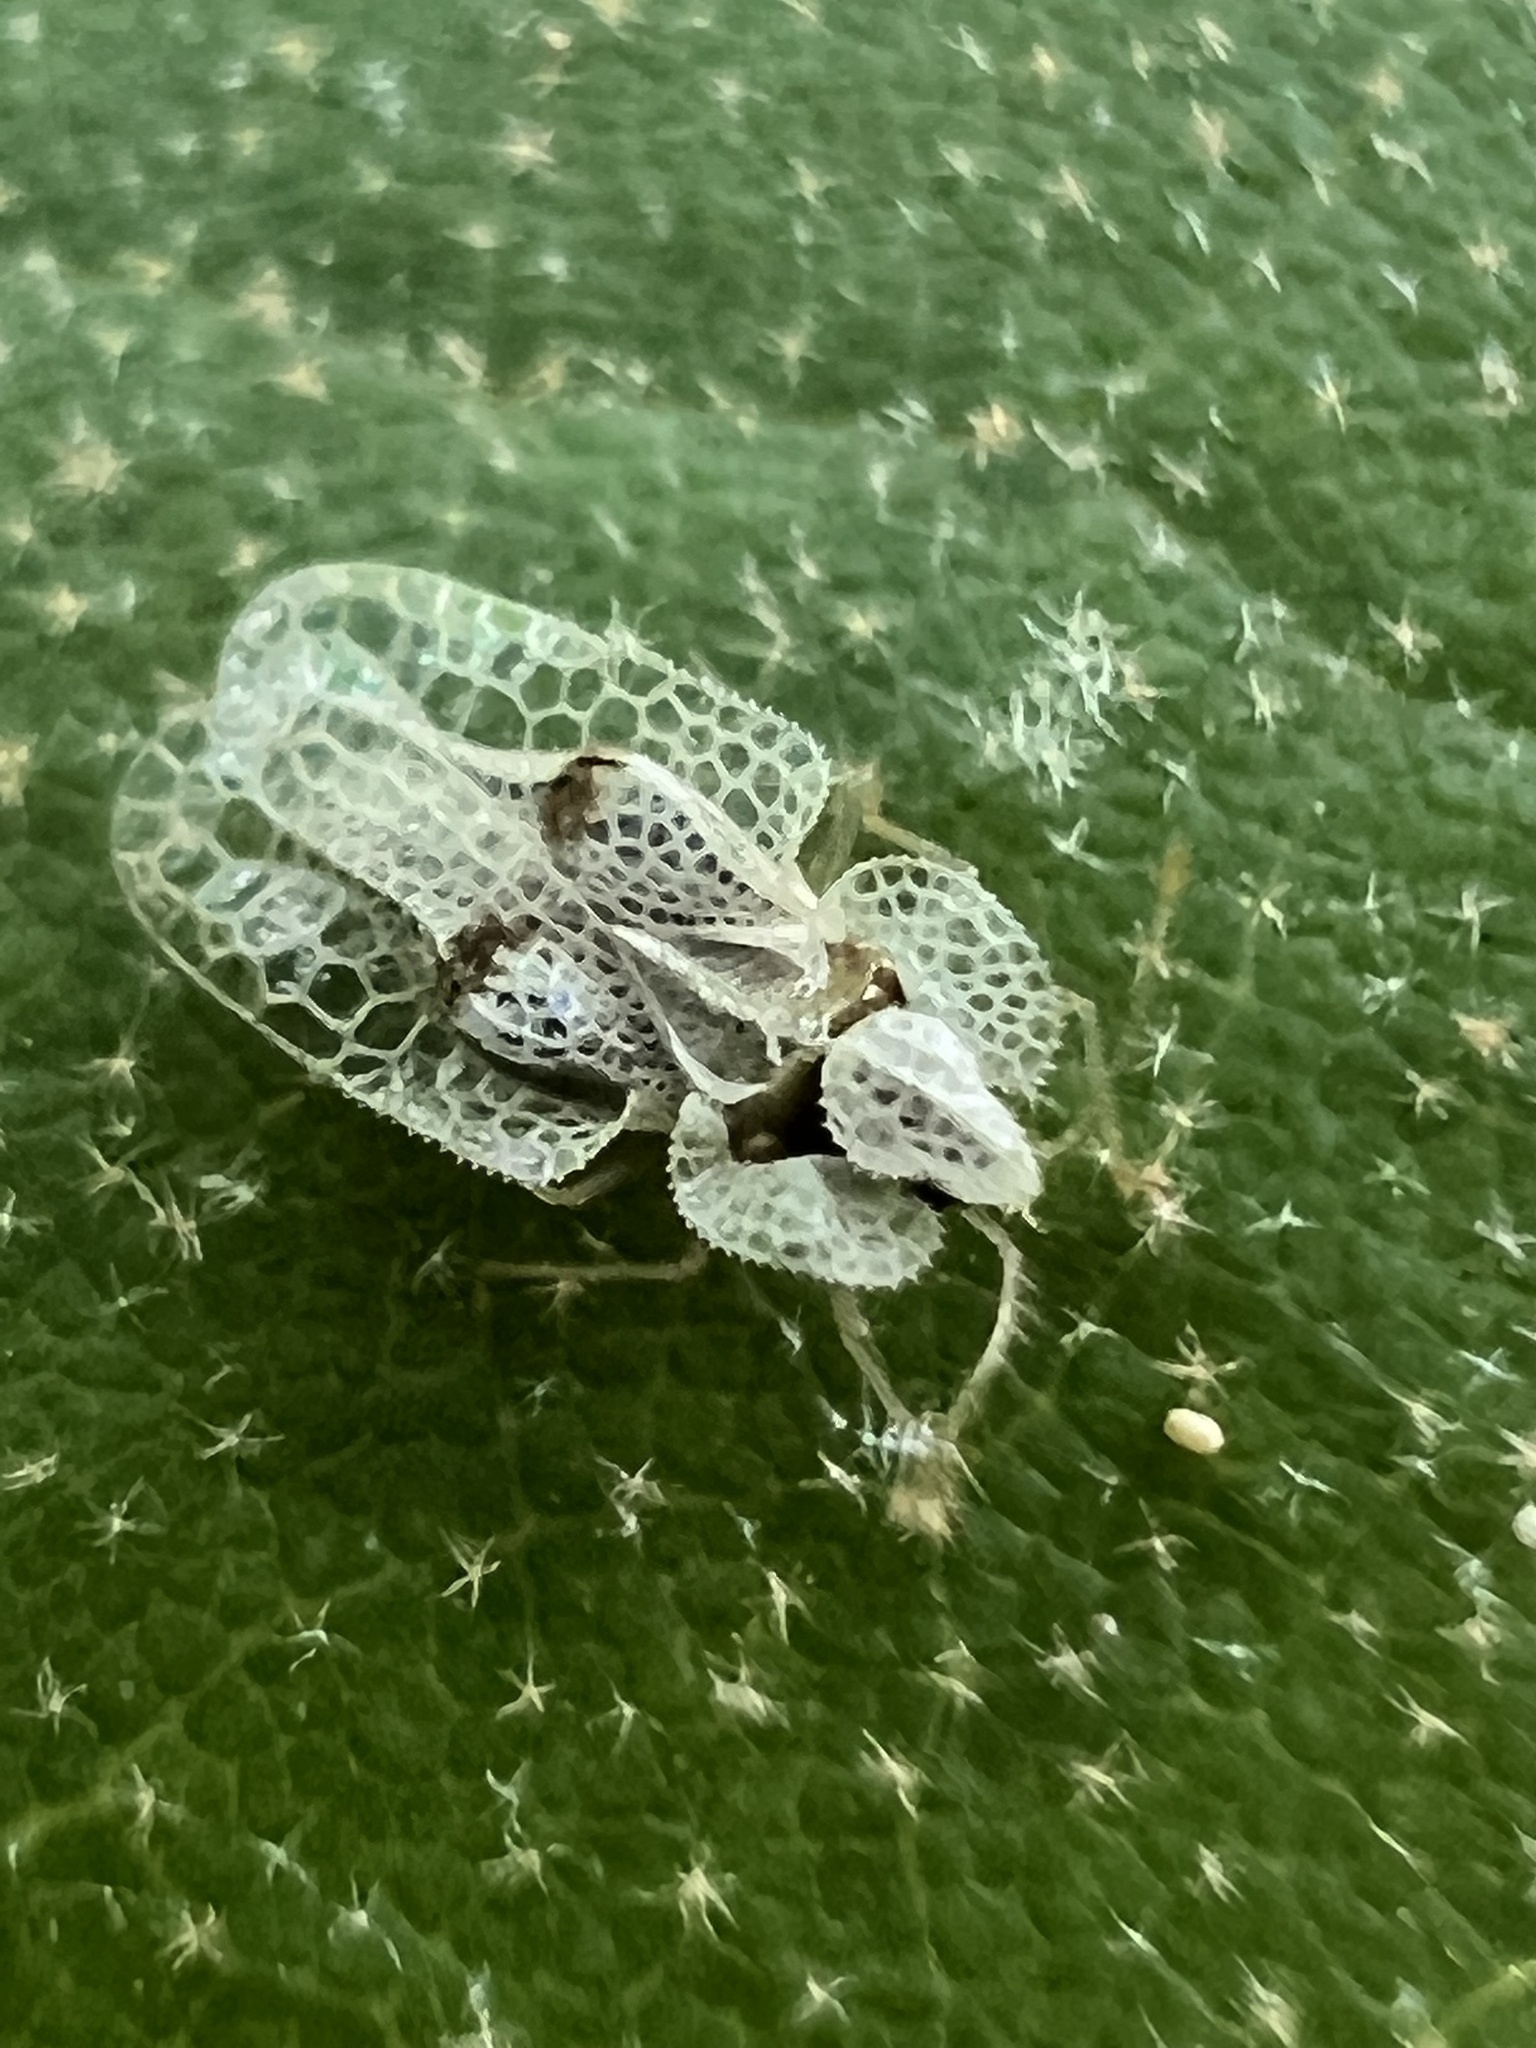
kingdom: Animalia
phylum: Arthropoda
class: Insecta
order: Hemiptera
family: Tingidae
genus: Corythucha
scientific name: Corythucha ciliata
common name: Sycamore lace bug
